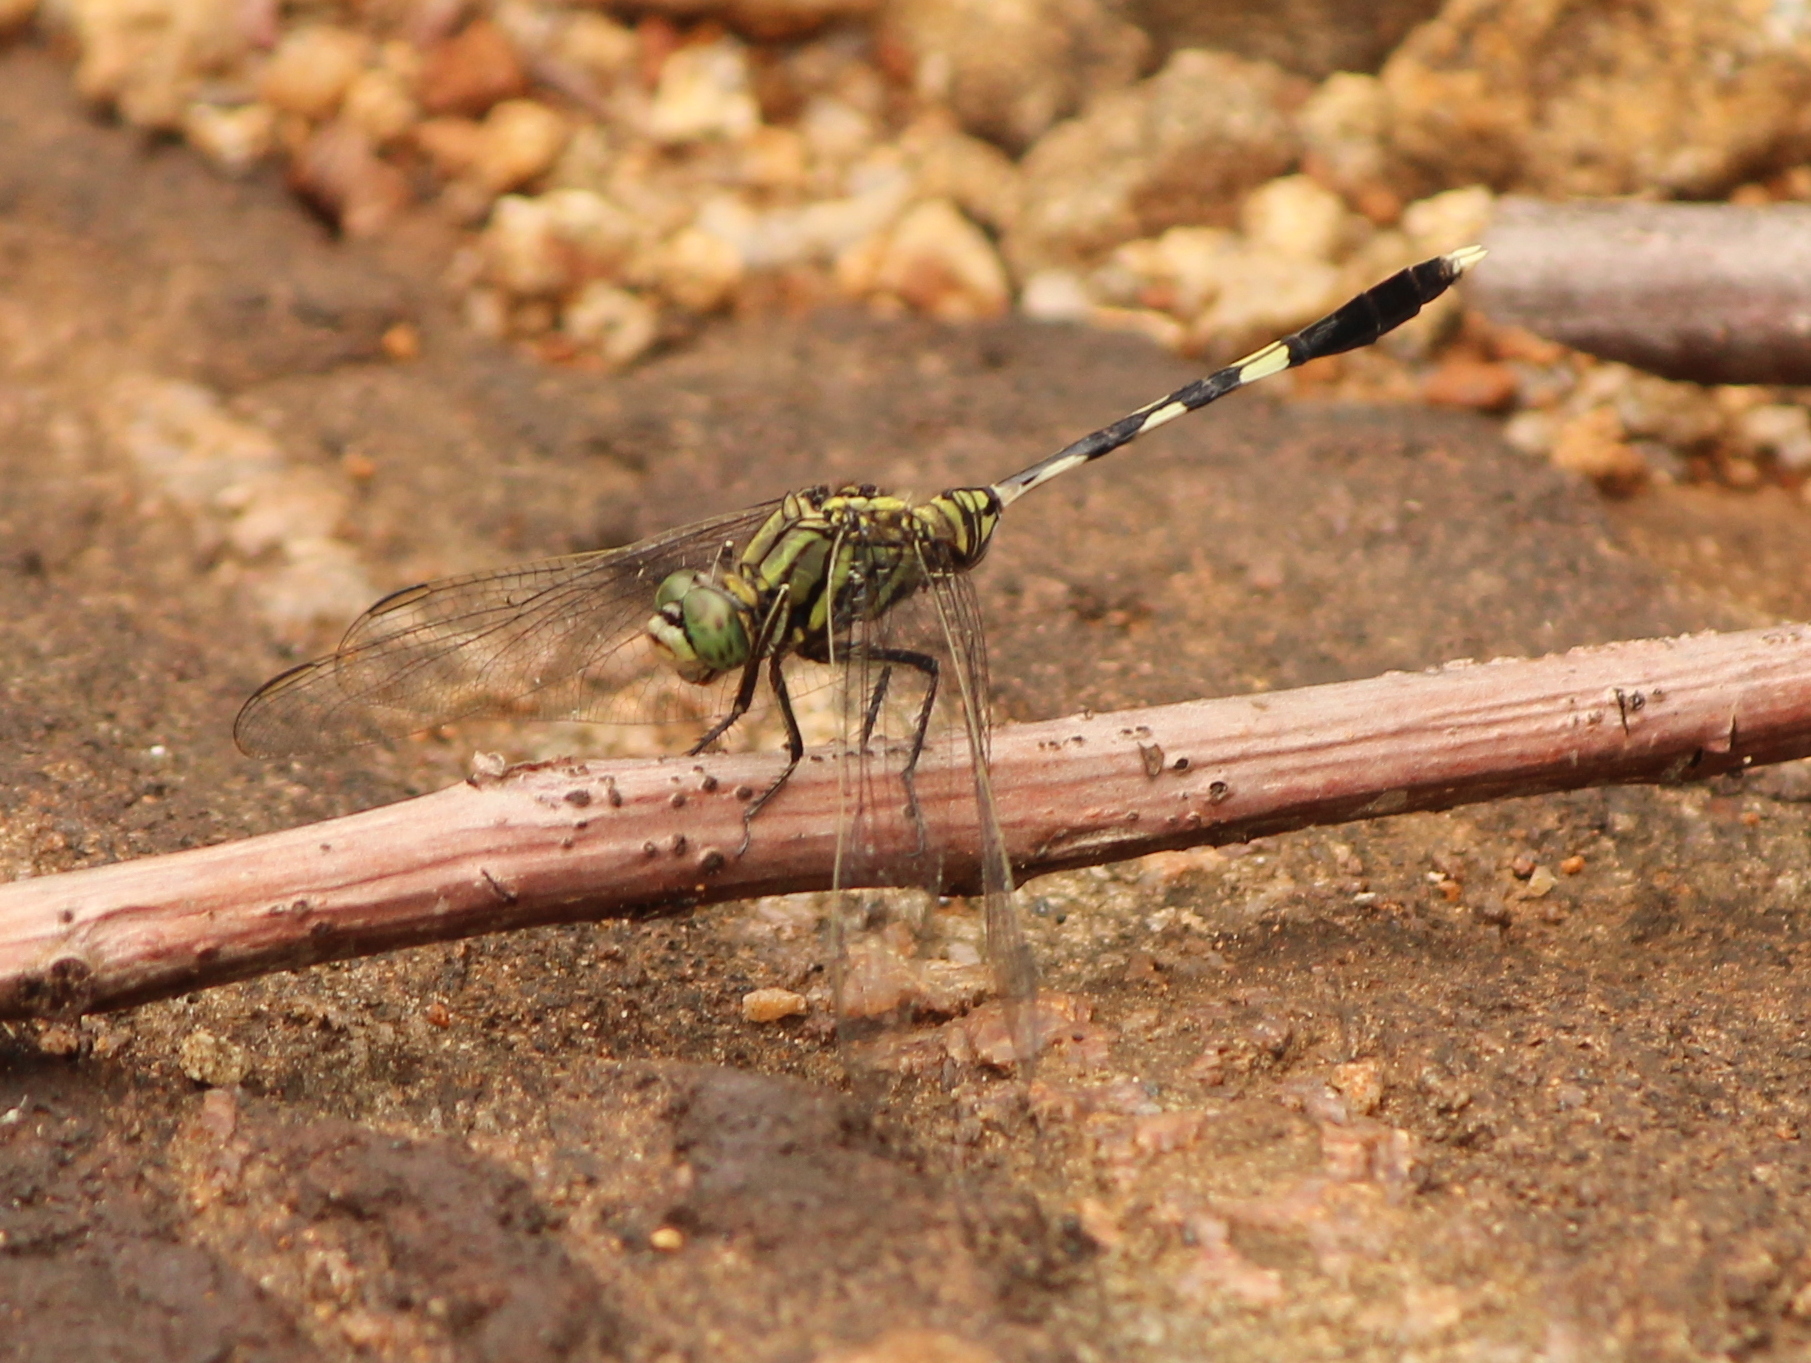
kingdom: Animalia
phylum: Arthropoda
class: Insecta
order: Odonata
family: Libellulidae
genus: Orthetrum
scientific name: Orthetrum sabina
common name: Slender skimmer
